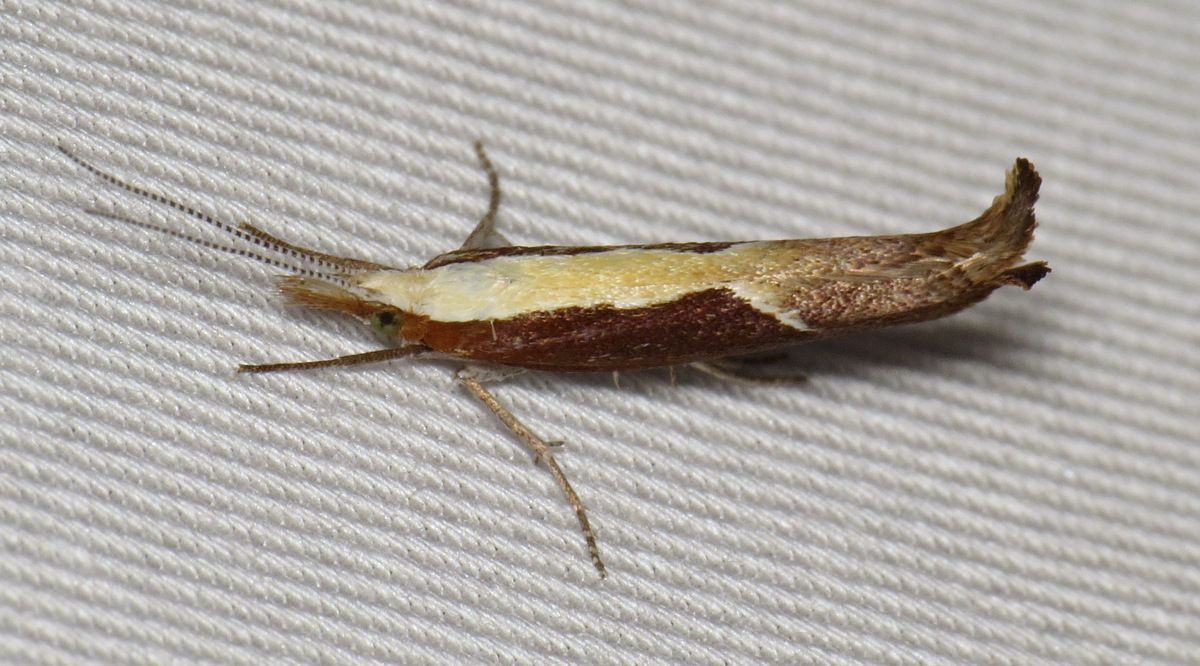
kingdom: Animalia
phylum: Arthropoda
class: Insecta
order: Lepidoptera
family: Ypsolophidae
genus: Ypsolopha
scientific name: Ypsolopha dentella
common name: Honeysuckle moth
